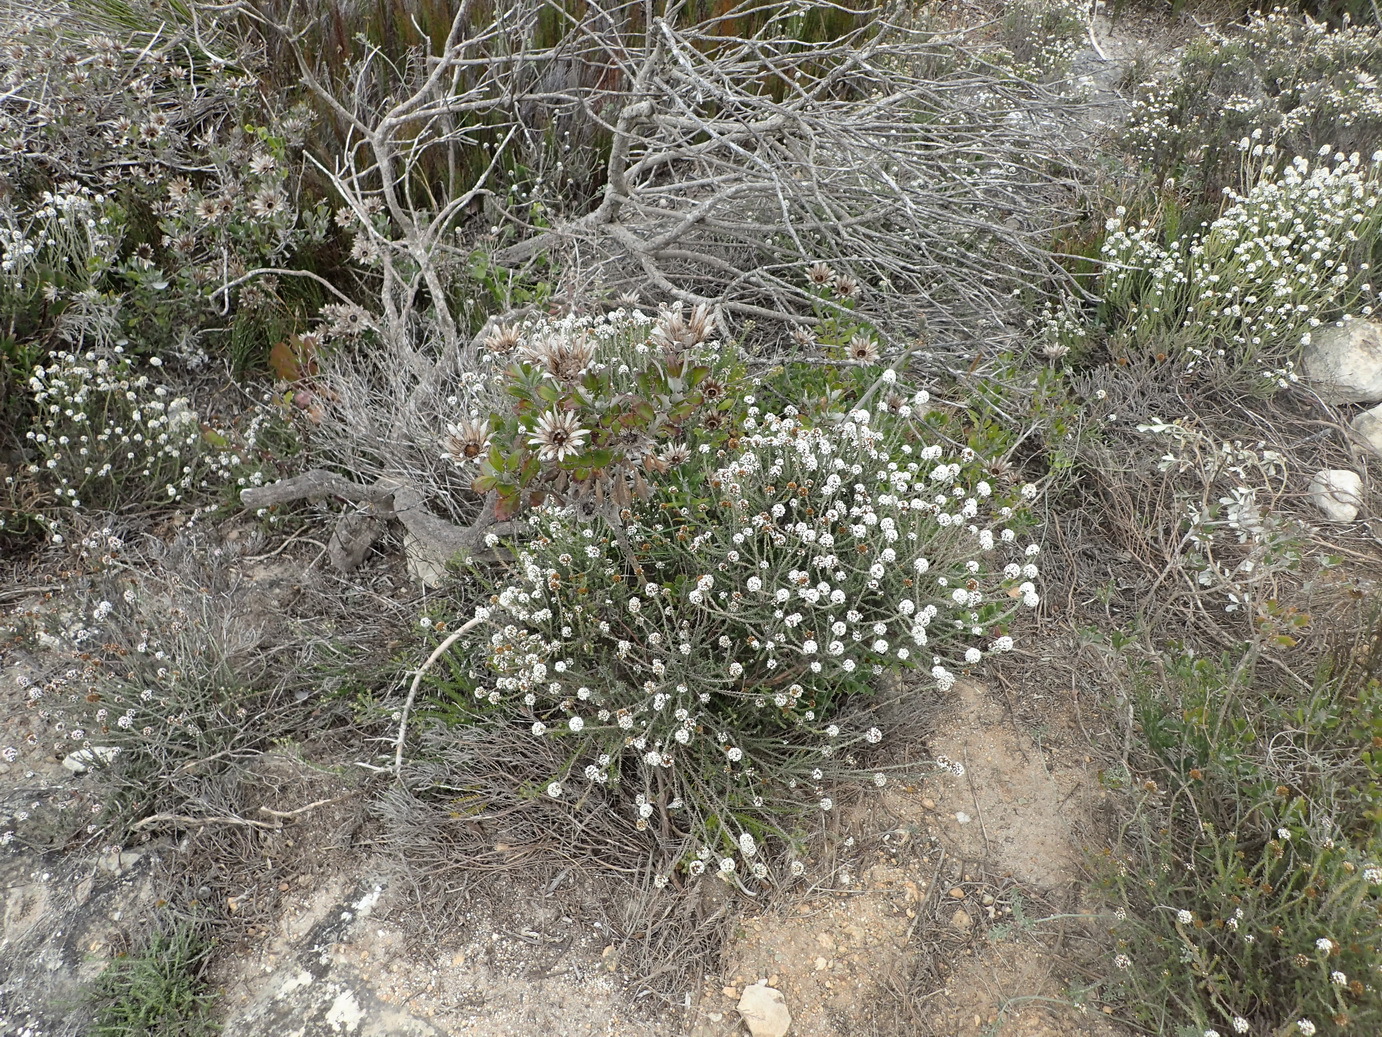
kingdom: Plantae
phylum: Tracheophyta
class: Magnoliopsida
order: Asterales
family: Asteraceae
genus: Disparago
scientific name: Disparago anomala
